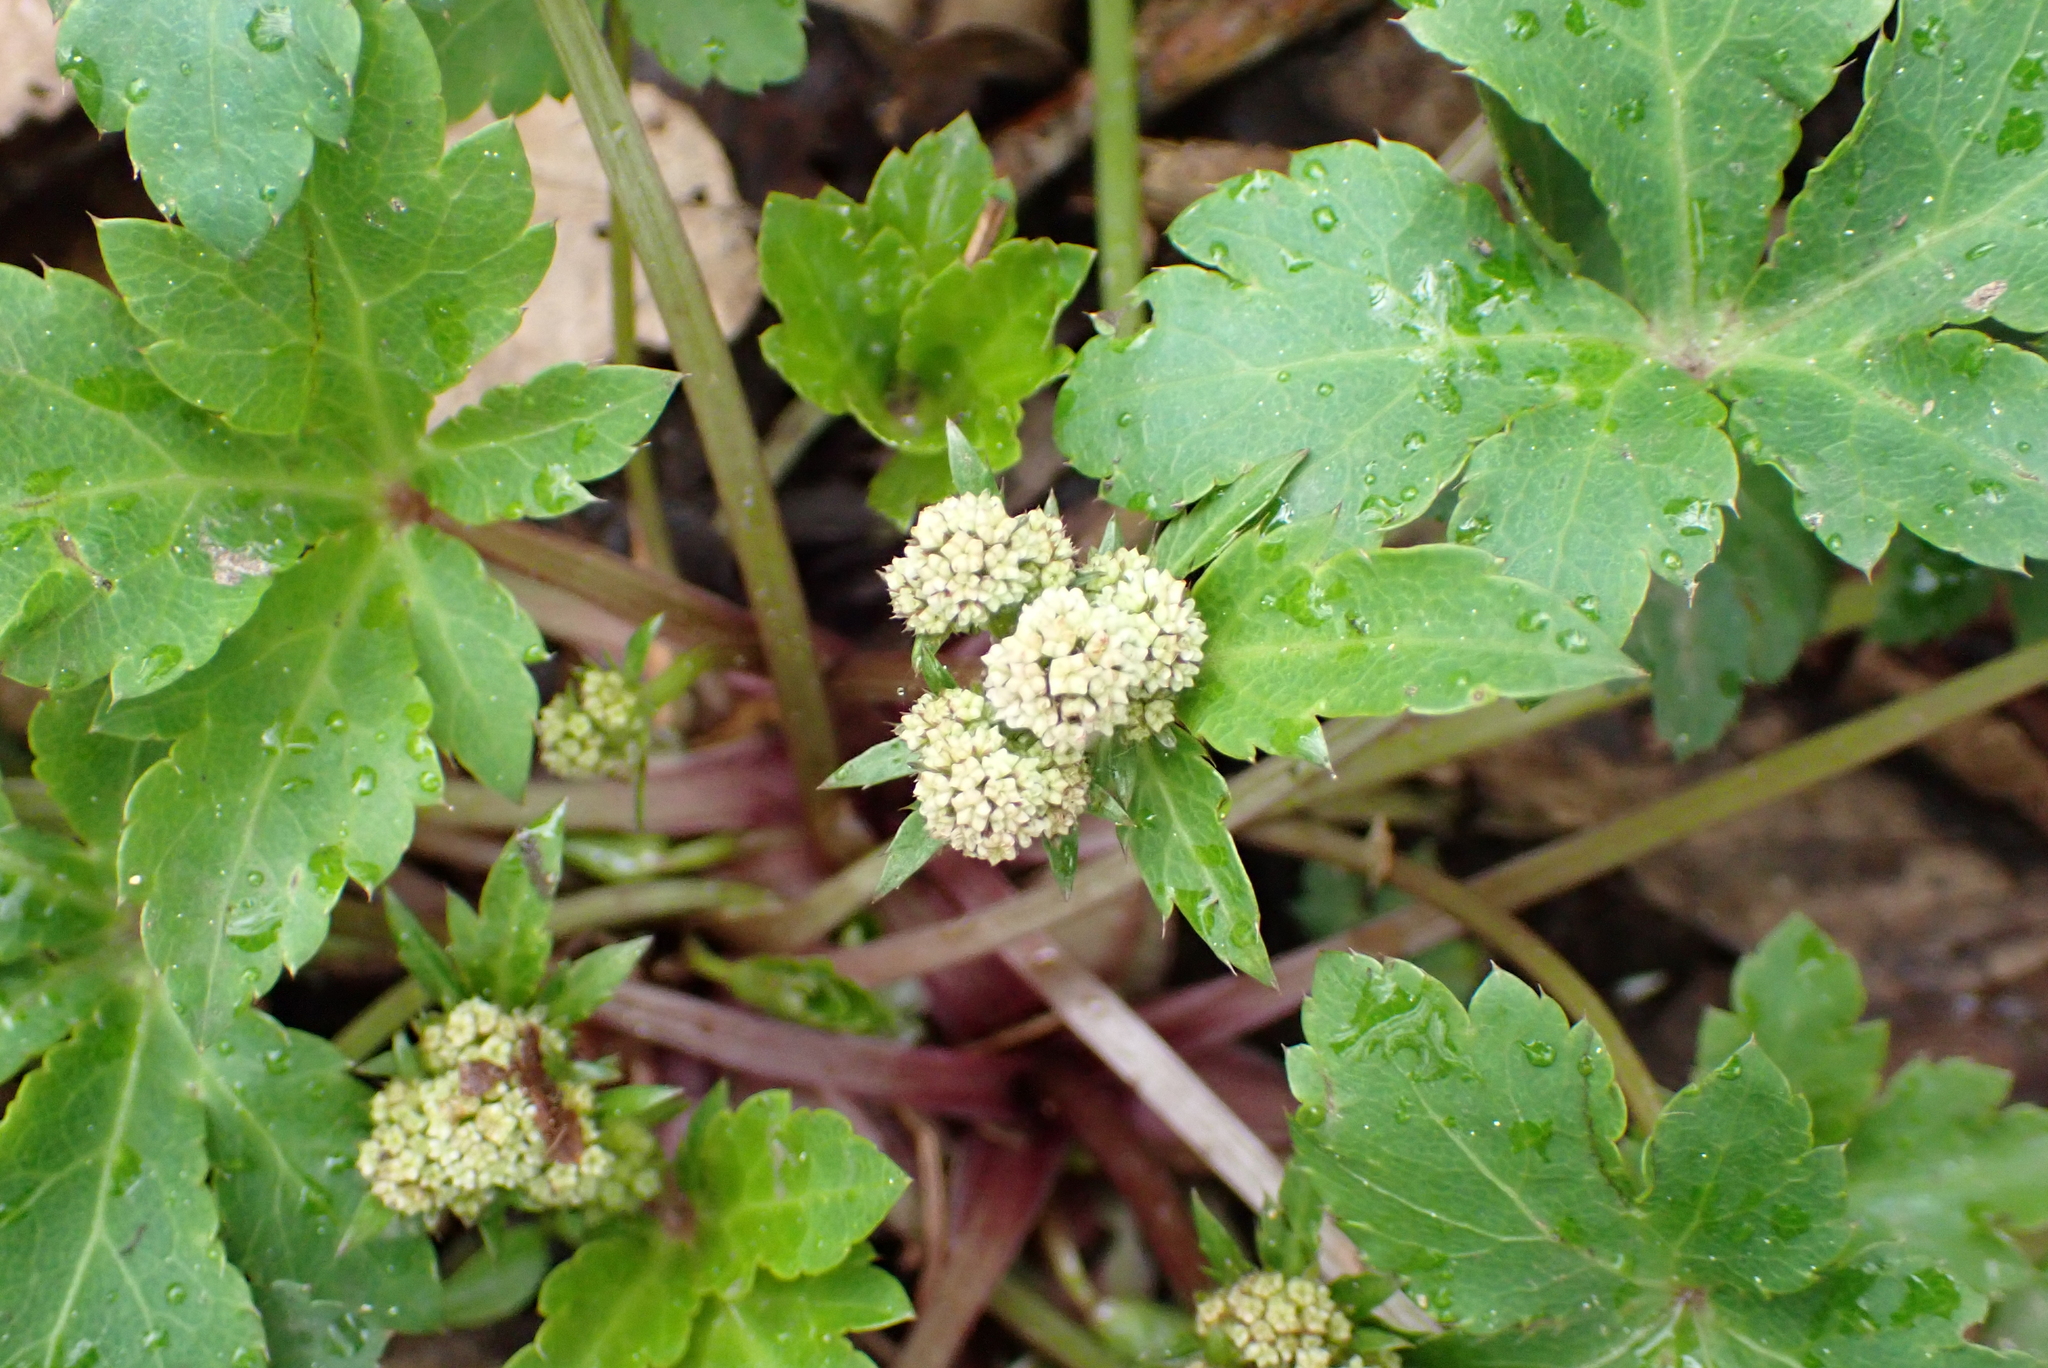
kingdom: Plantae
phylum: Tracheophyta
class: Magnoliopsida
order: Apiales
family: Apiaceae
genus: Sanicula
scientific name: Sanicula europaea
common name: Sanicle
